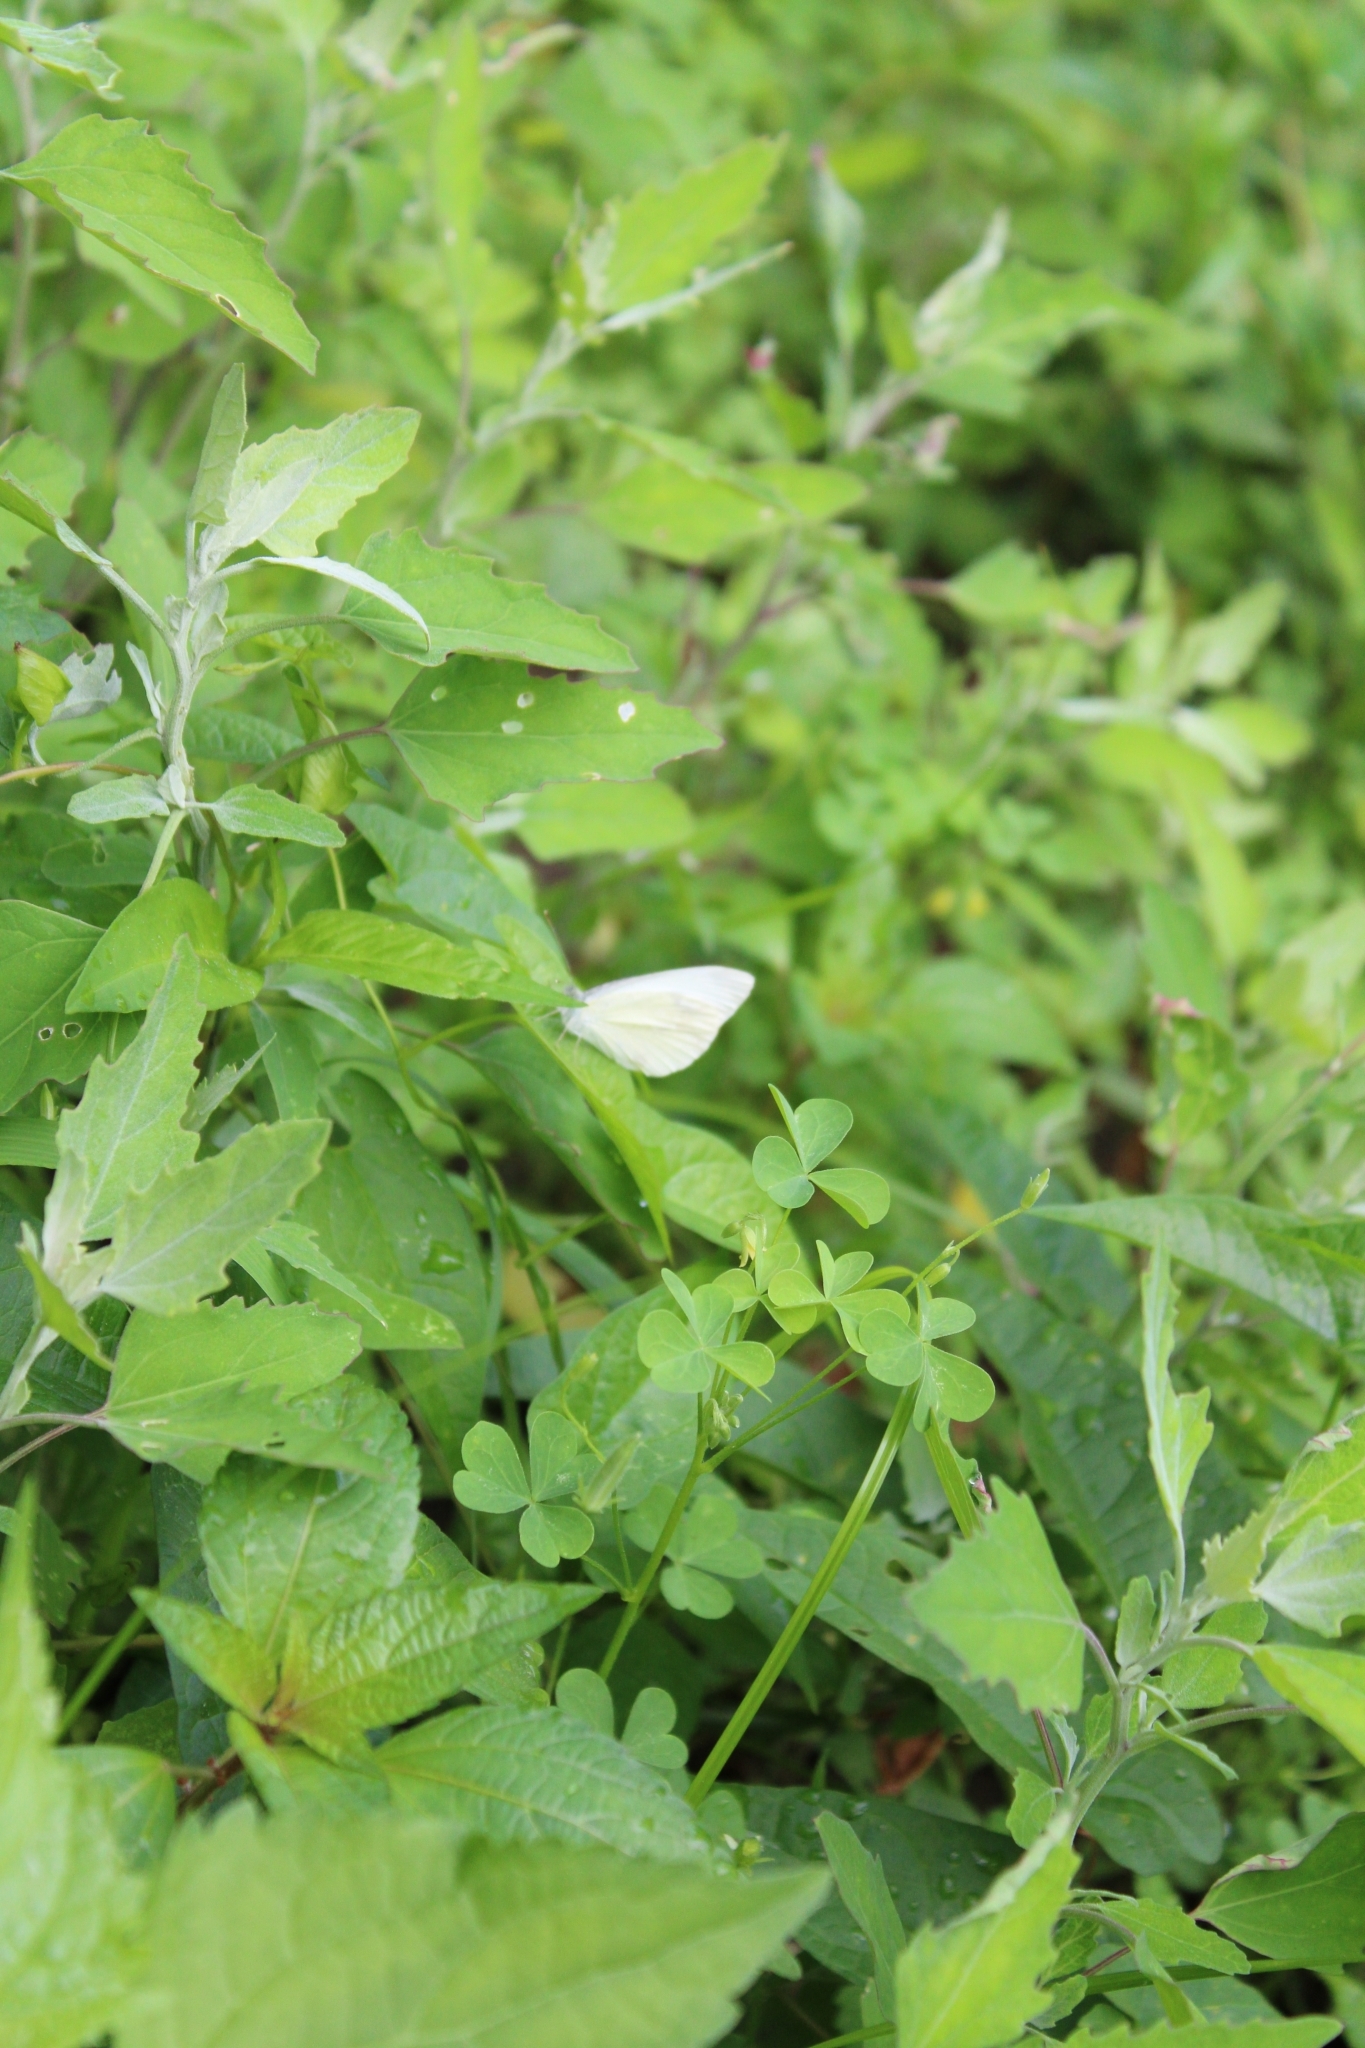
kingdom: Animalia
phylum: Arthropoda
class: Insecta
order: Lepidoptera
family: Pieridae
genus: Pieris
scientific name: Pieris rapae
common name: Small white
